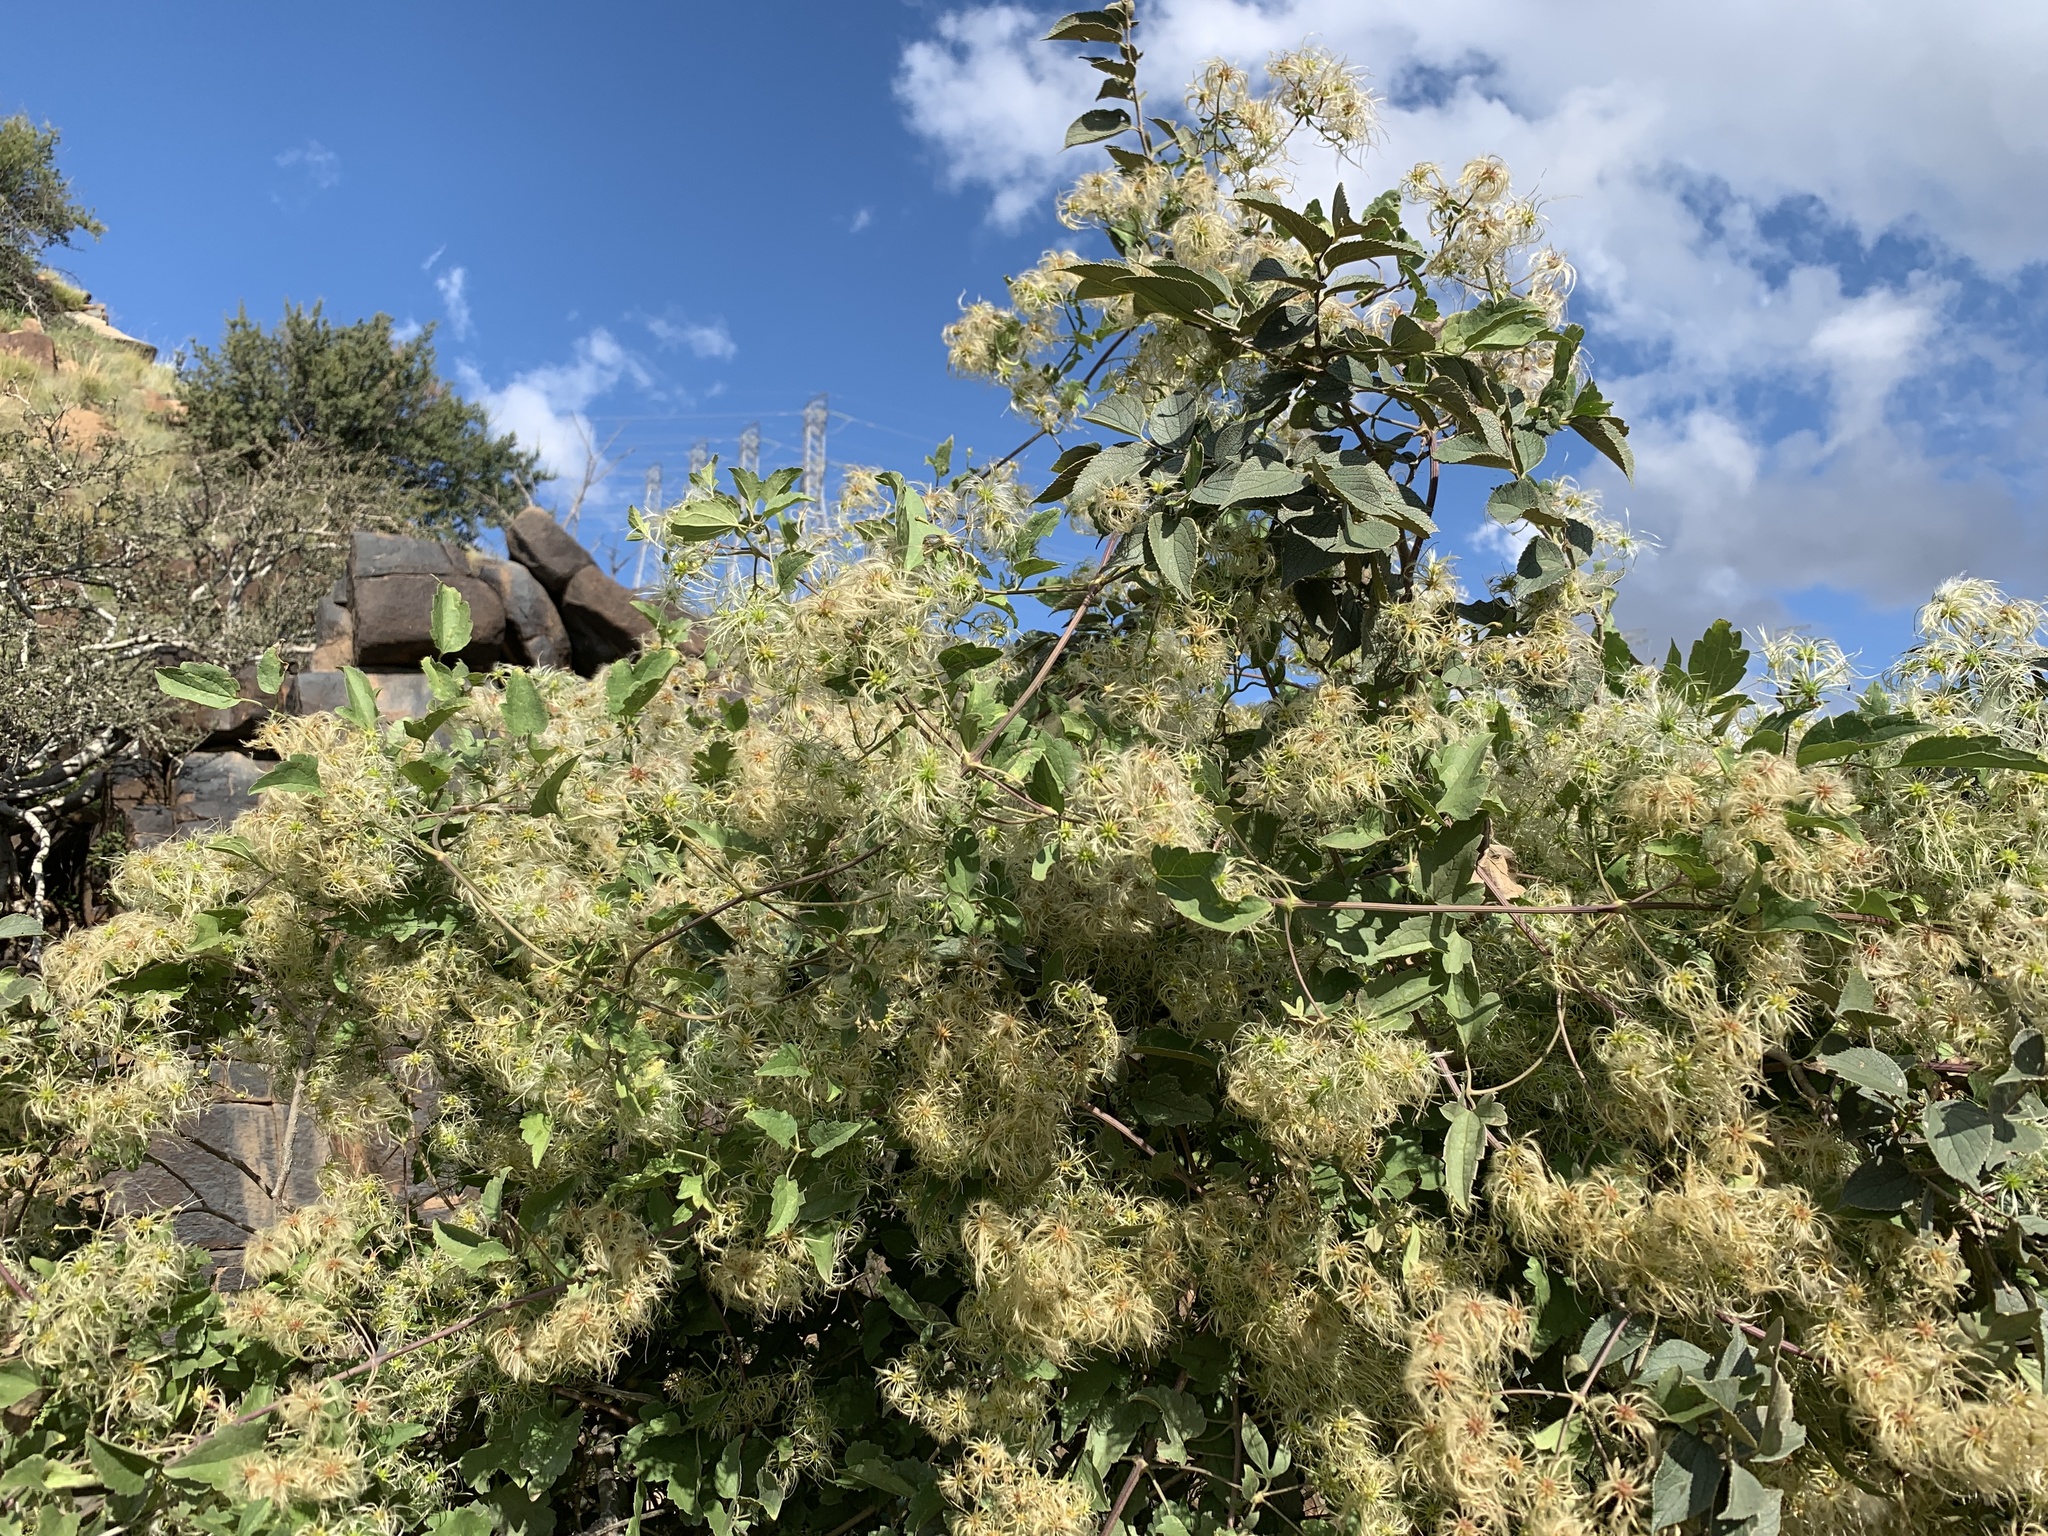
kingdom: Plantae
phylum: Tracheophyta
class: Magnoliopsida
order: Ranunculales
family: Ranunculaceae
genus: Clematis
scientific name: Clematis brachiata
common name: Traveler's-joy
